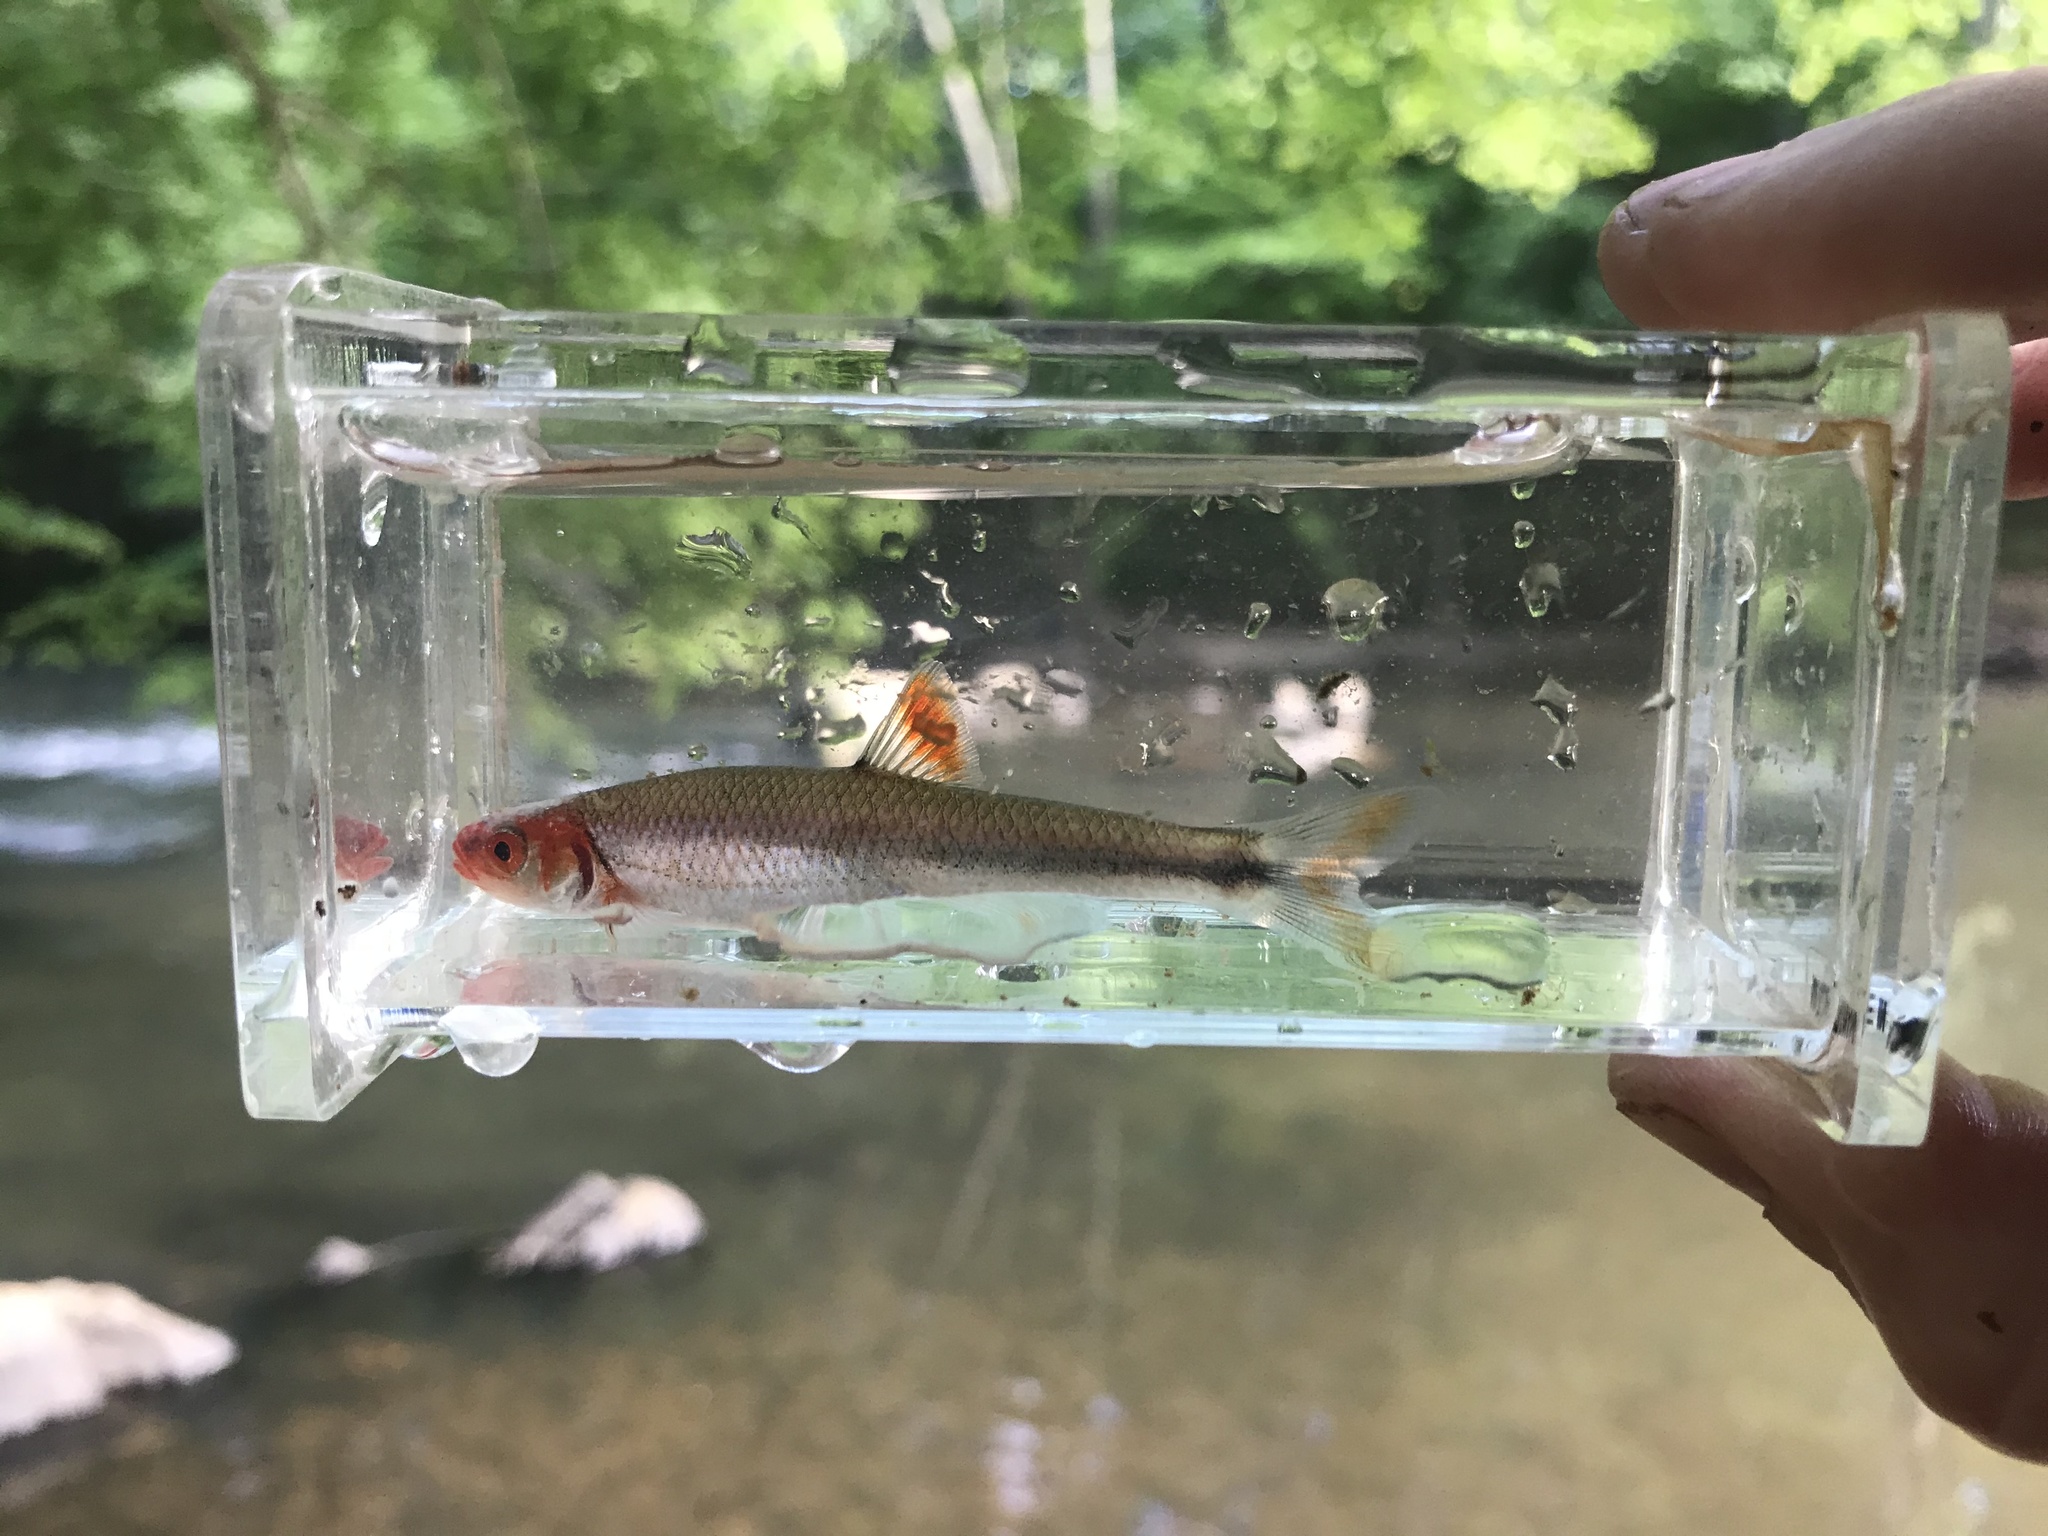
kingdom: Animalia
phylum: Chordata
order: Cypriniformes
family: Cyprinidae
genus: Lythrurus
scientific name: Lythrurus matutinus
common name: Pinewoods shiner
